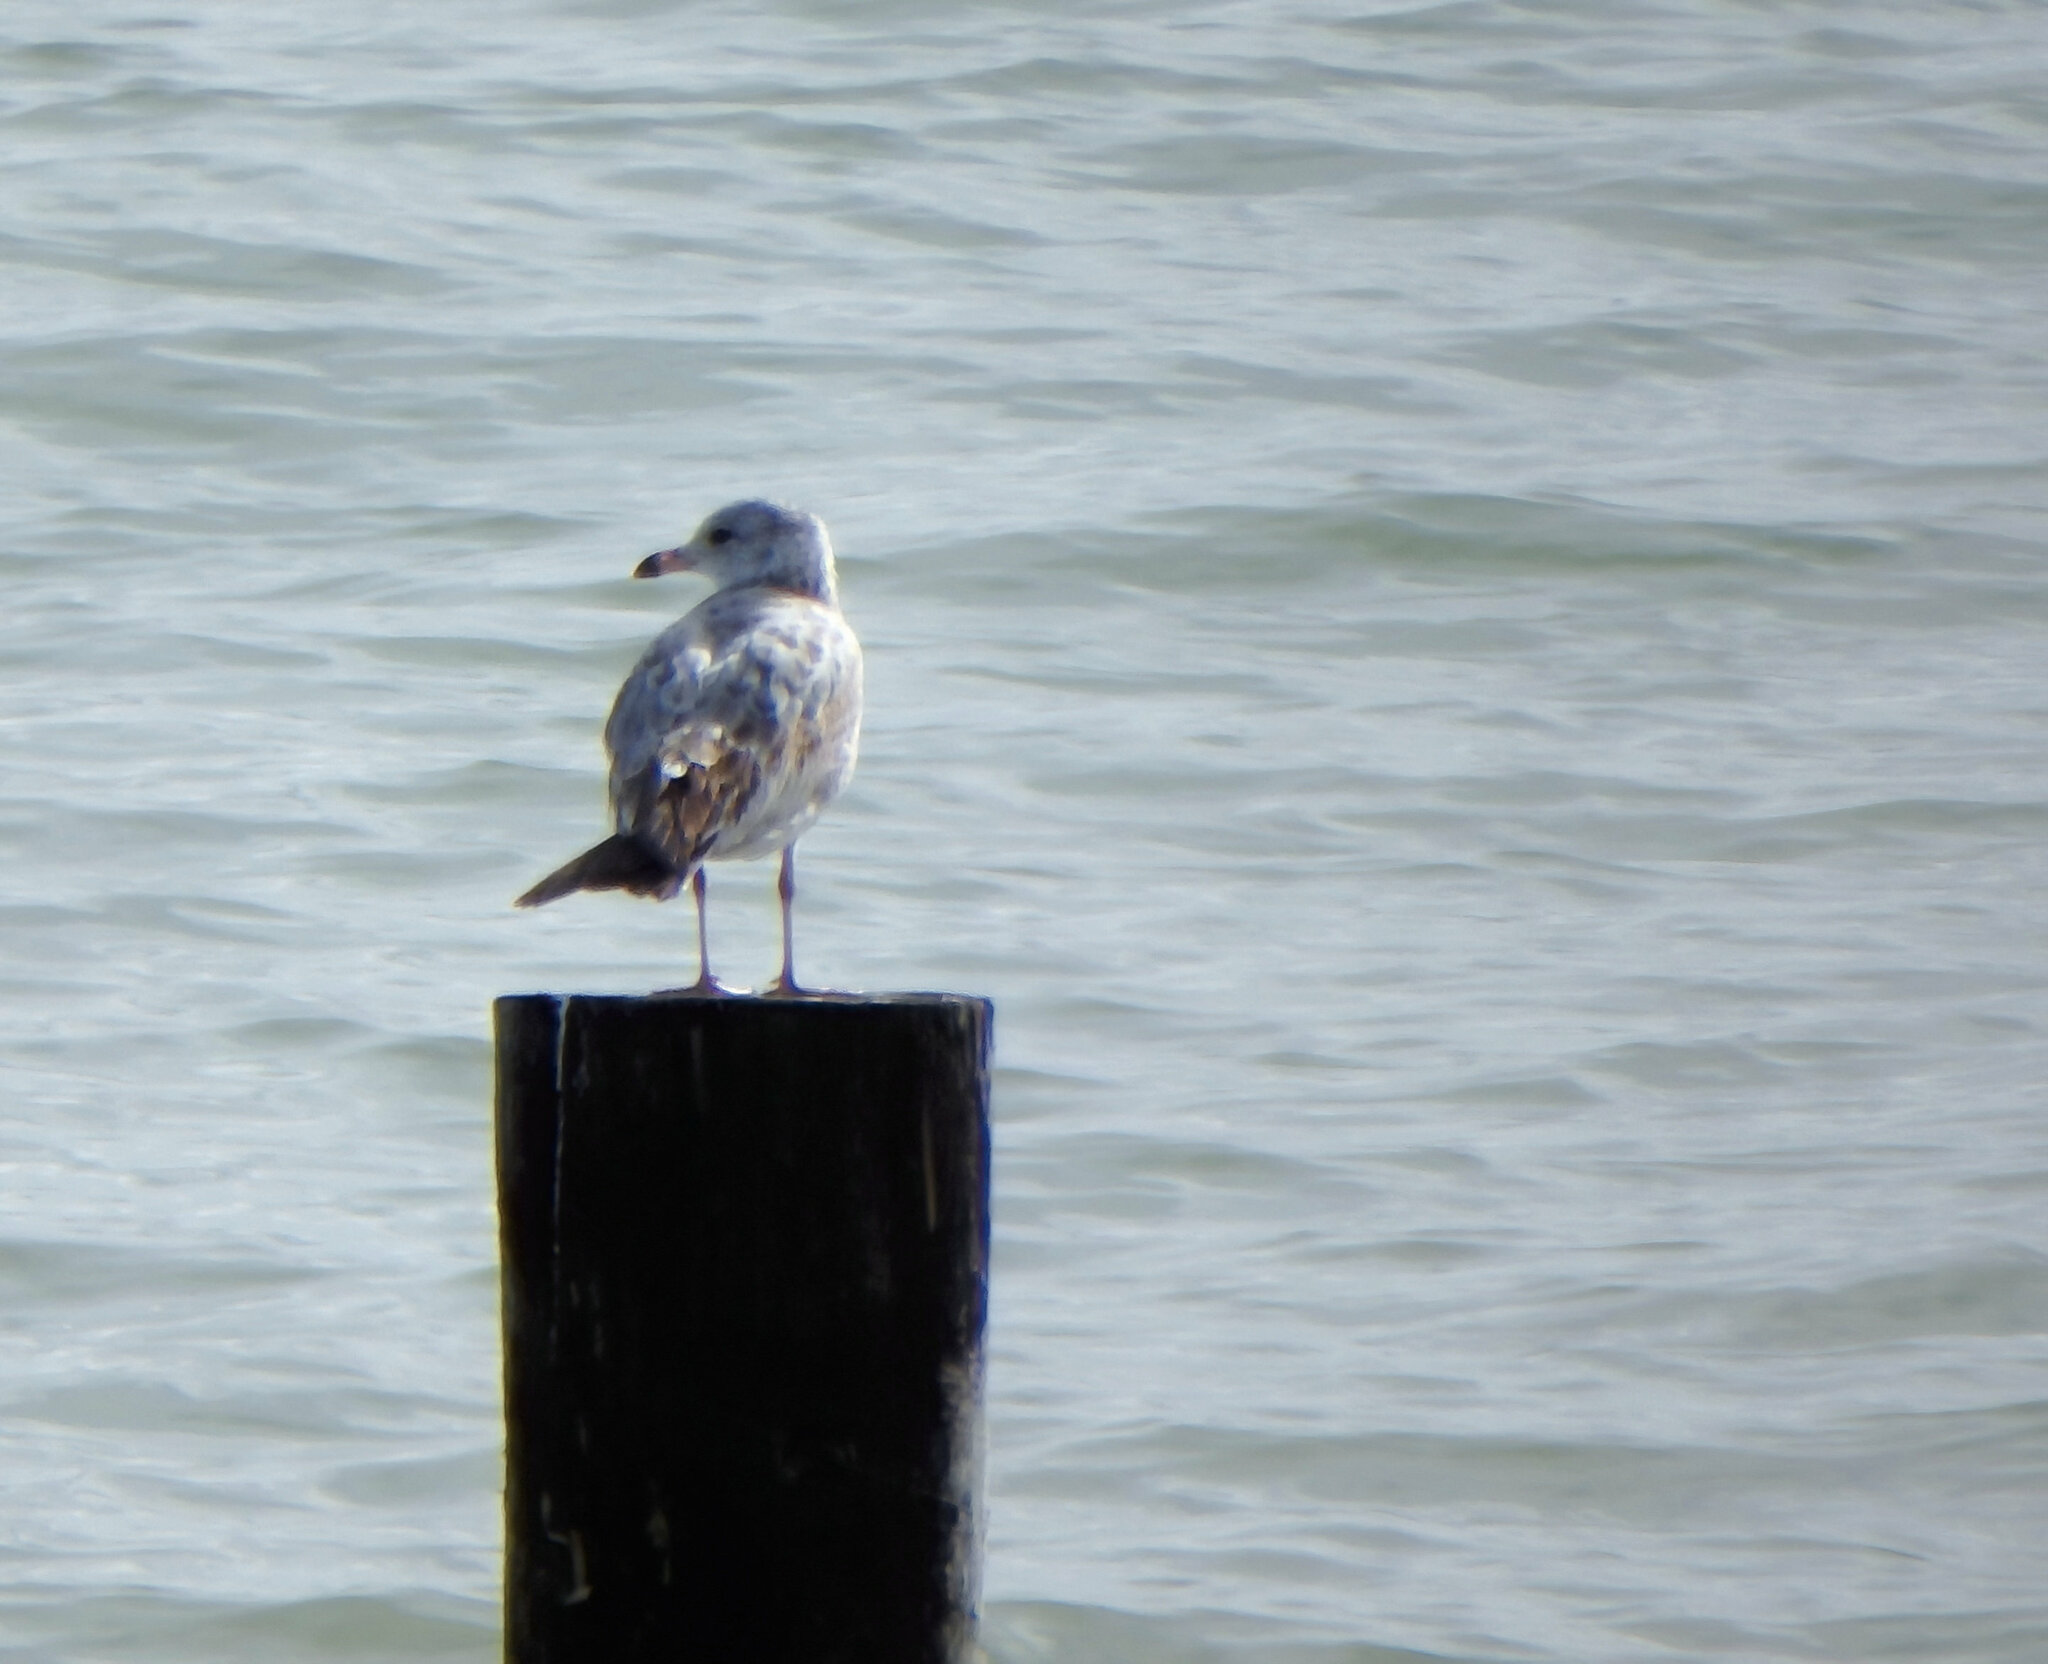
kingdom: Animalia
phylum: Chordata
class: Aves
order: Charadriiformes
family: Laridae
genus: Larus
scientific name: Larus delawarensis
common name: Ring-billed gull
